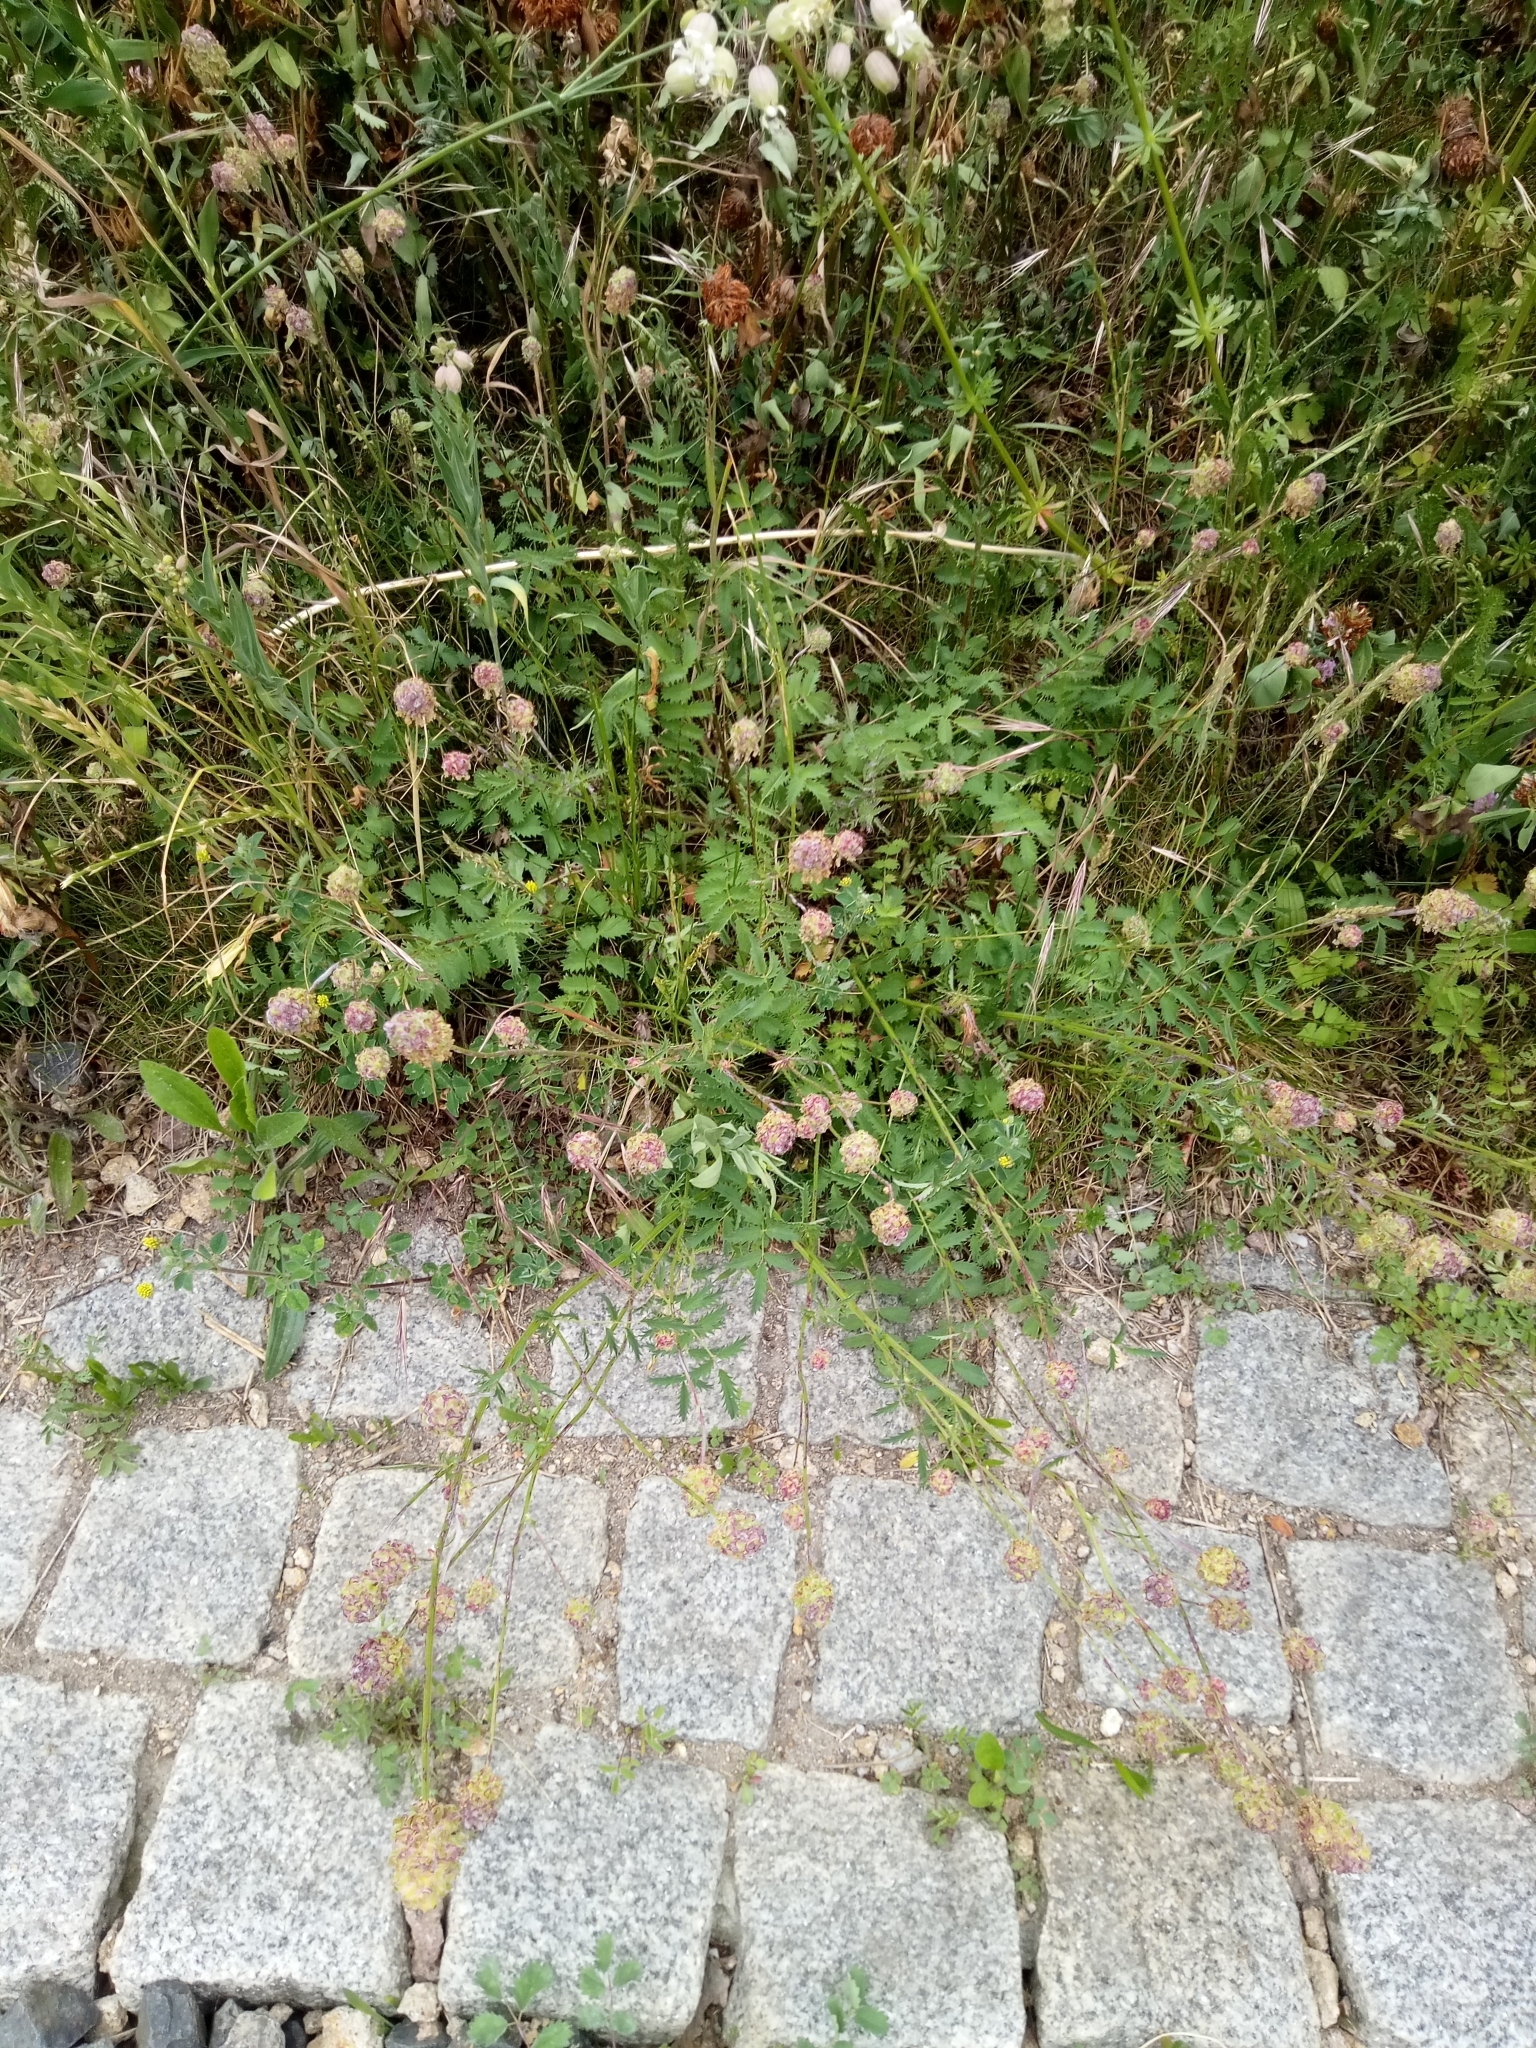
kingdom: Plantae
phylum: Tracheophyta
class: Magnoliopsida
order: Rosales
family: Rosaceae
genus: Poterium
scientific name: Poterium sanguisorba
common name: Salad burnet
